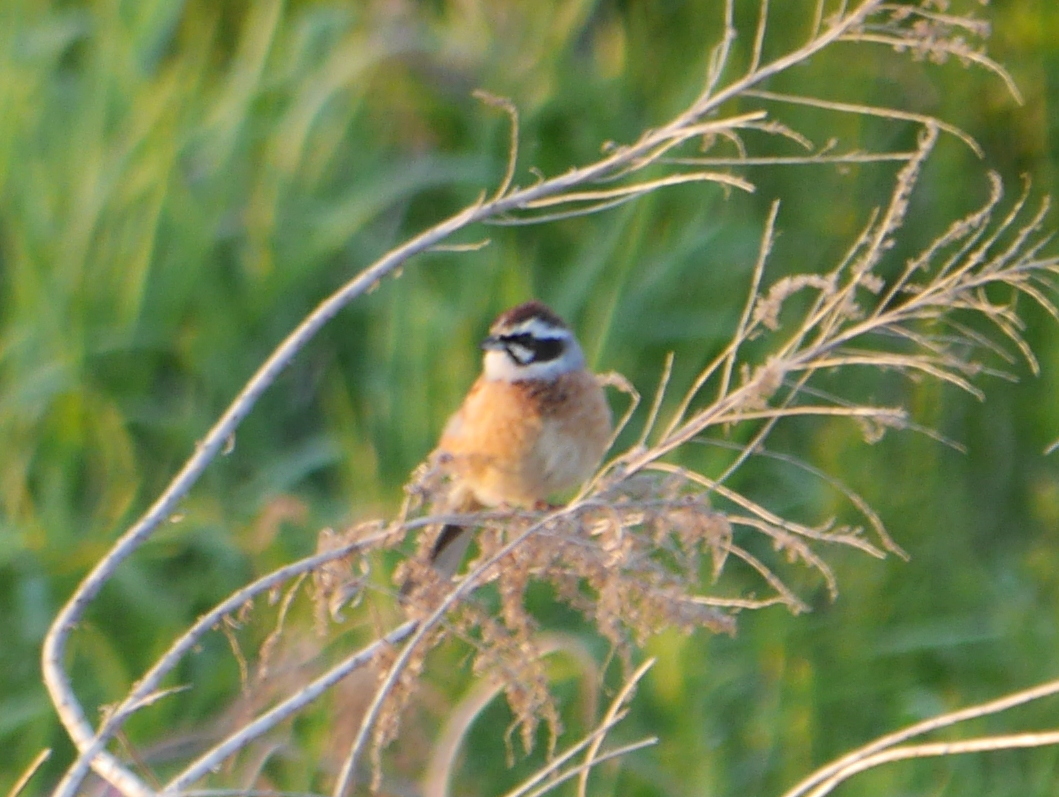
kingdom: Animalia
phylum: Chordata
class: Aves
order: Passeriformes
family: Emberizidae
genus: Emberiza
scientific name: Emberiza cioides
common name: Meadow bunting
